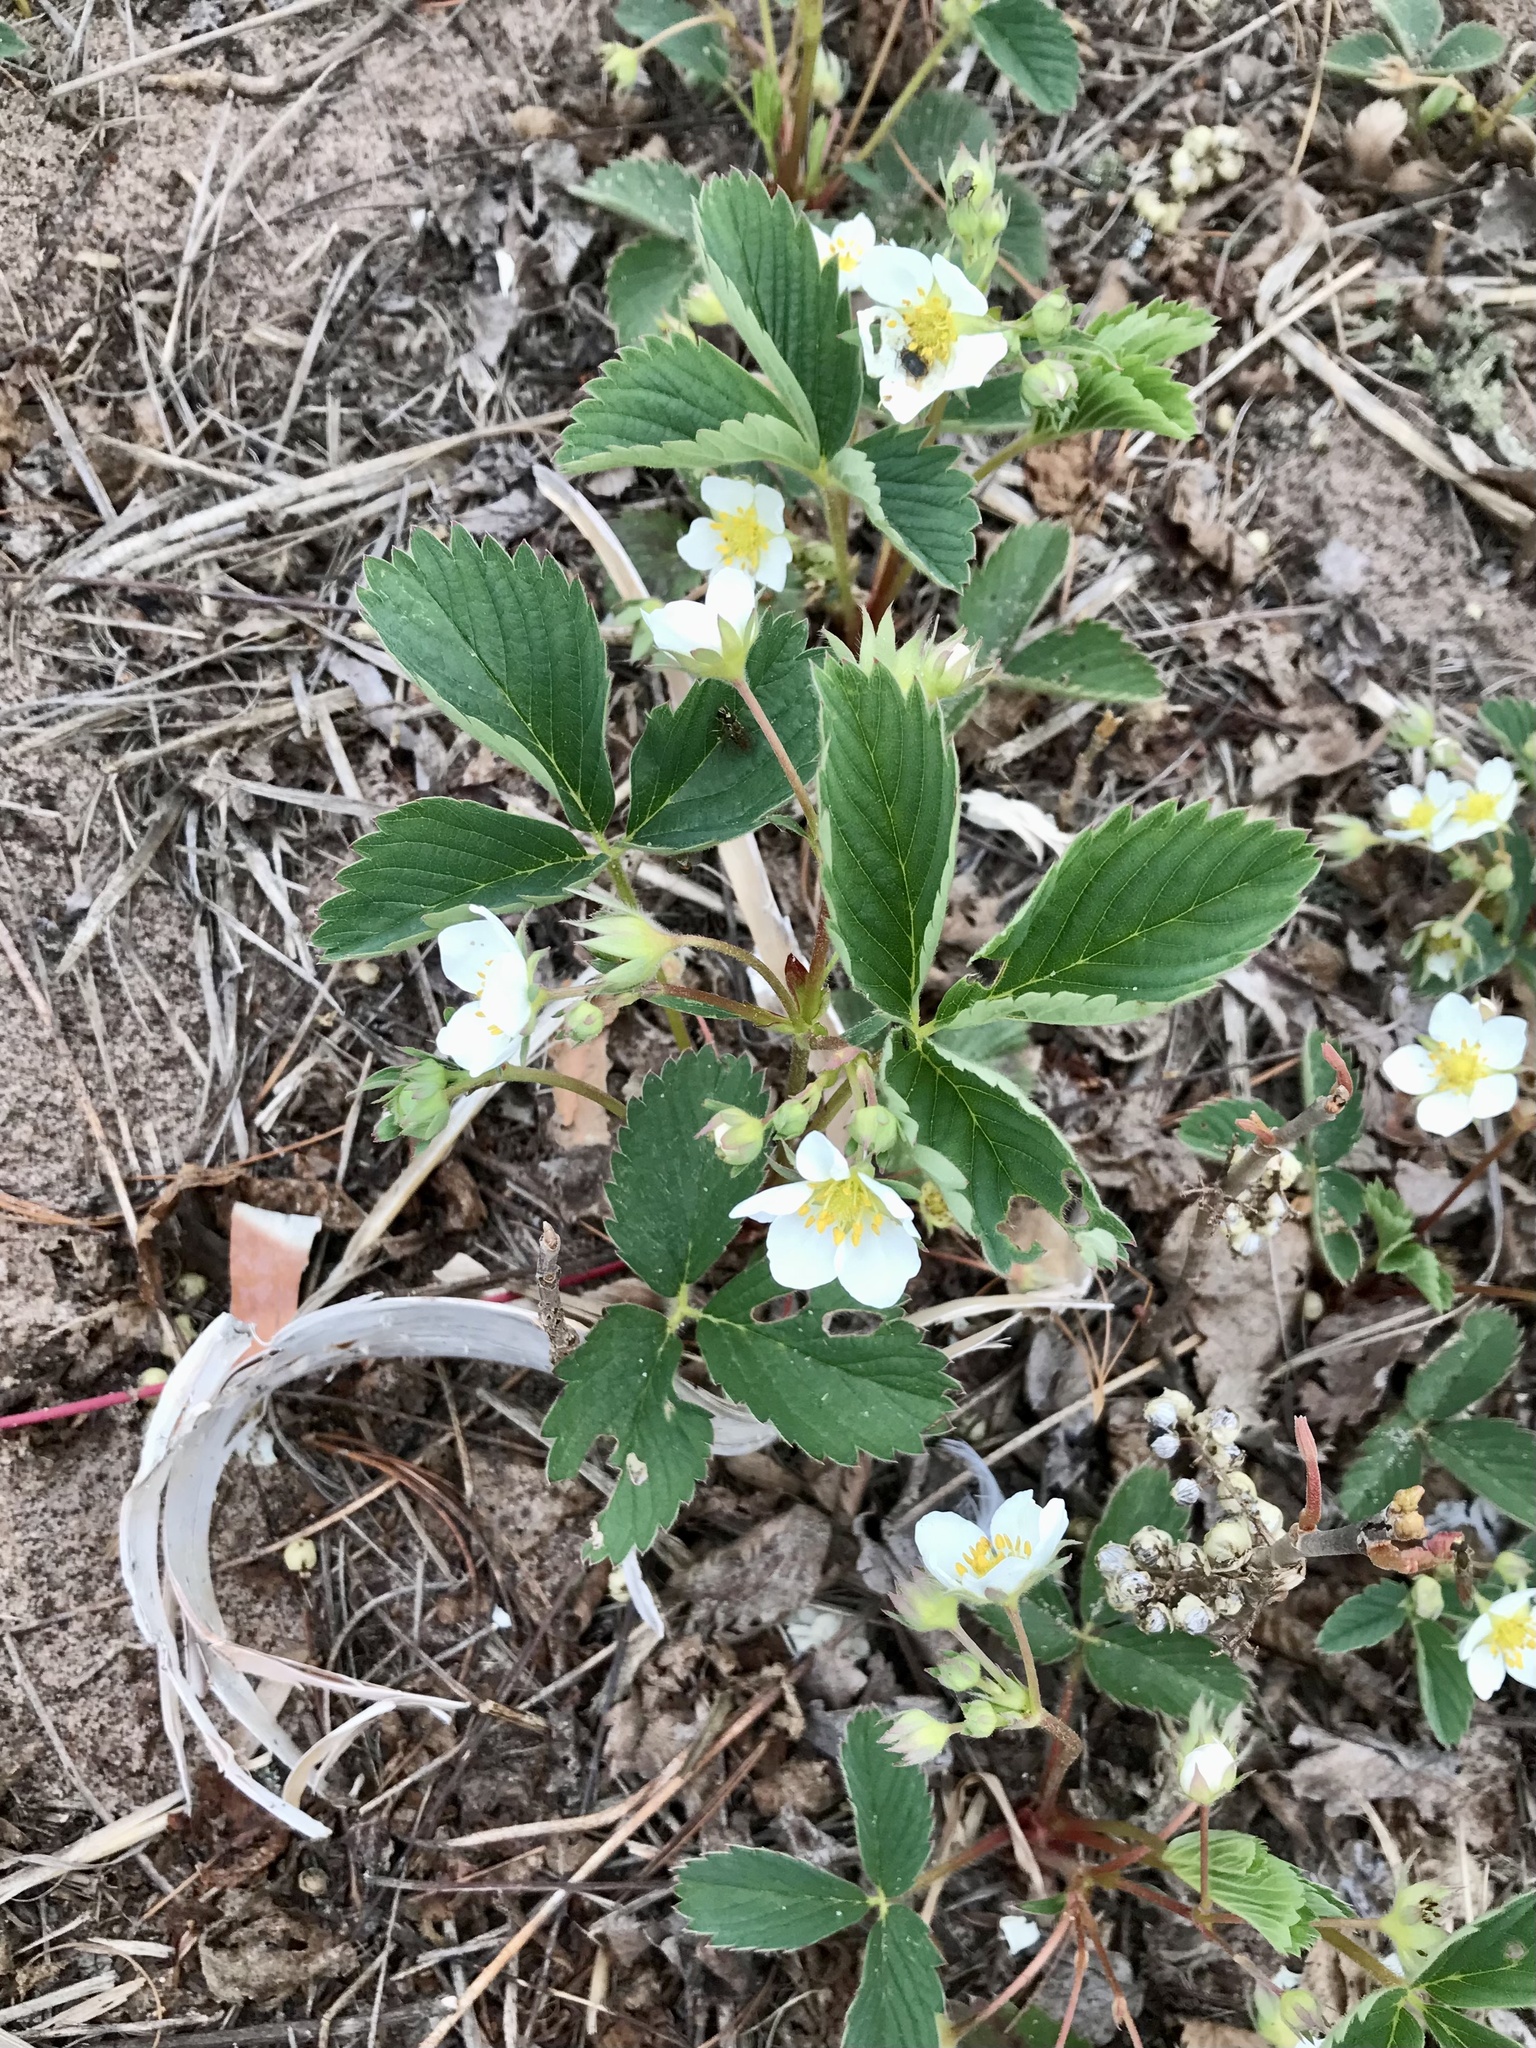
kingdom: Plantae
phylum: Tracheophyta
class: Magnoliopsida
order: Rosales
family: Rosaceae
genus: Fragaria
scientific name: Fragaria virginiana
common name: Thickleaved wild strawberry
